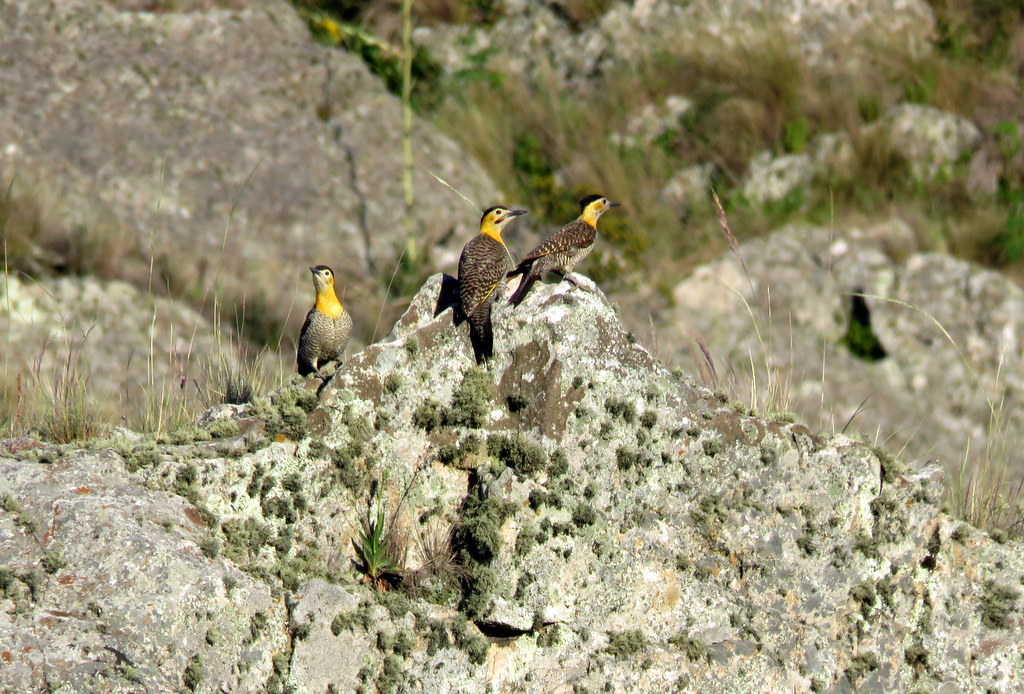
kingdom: Animalia
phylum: Chordata
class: Aves
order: Piciformes
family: Picidae
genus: Colaptes
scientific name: Colaptes campestris
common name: Campo flicker
